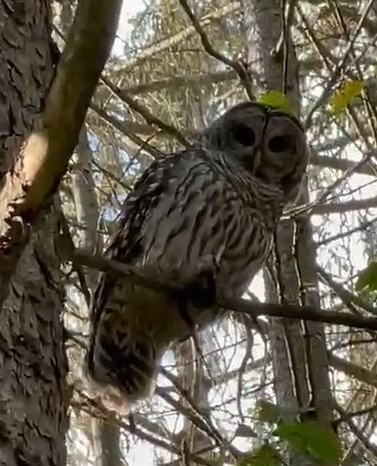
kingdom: Animalia
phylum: Chordata
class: Aves
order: Strigiformes
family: Strigidae
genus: Strix
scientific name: Strix varia
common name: Barred owl
